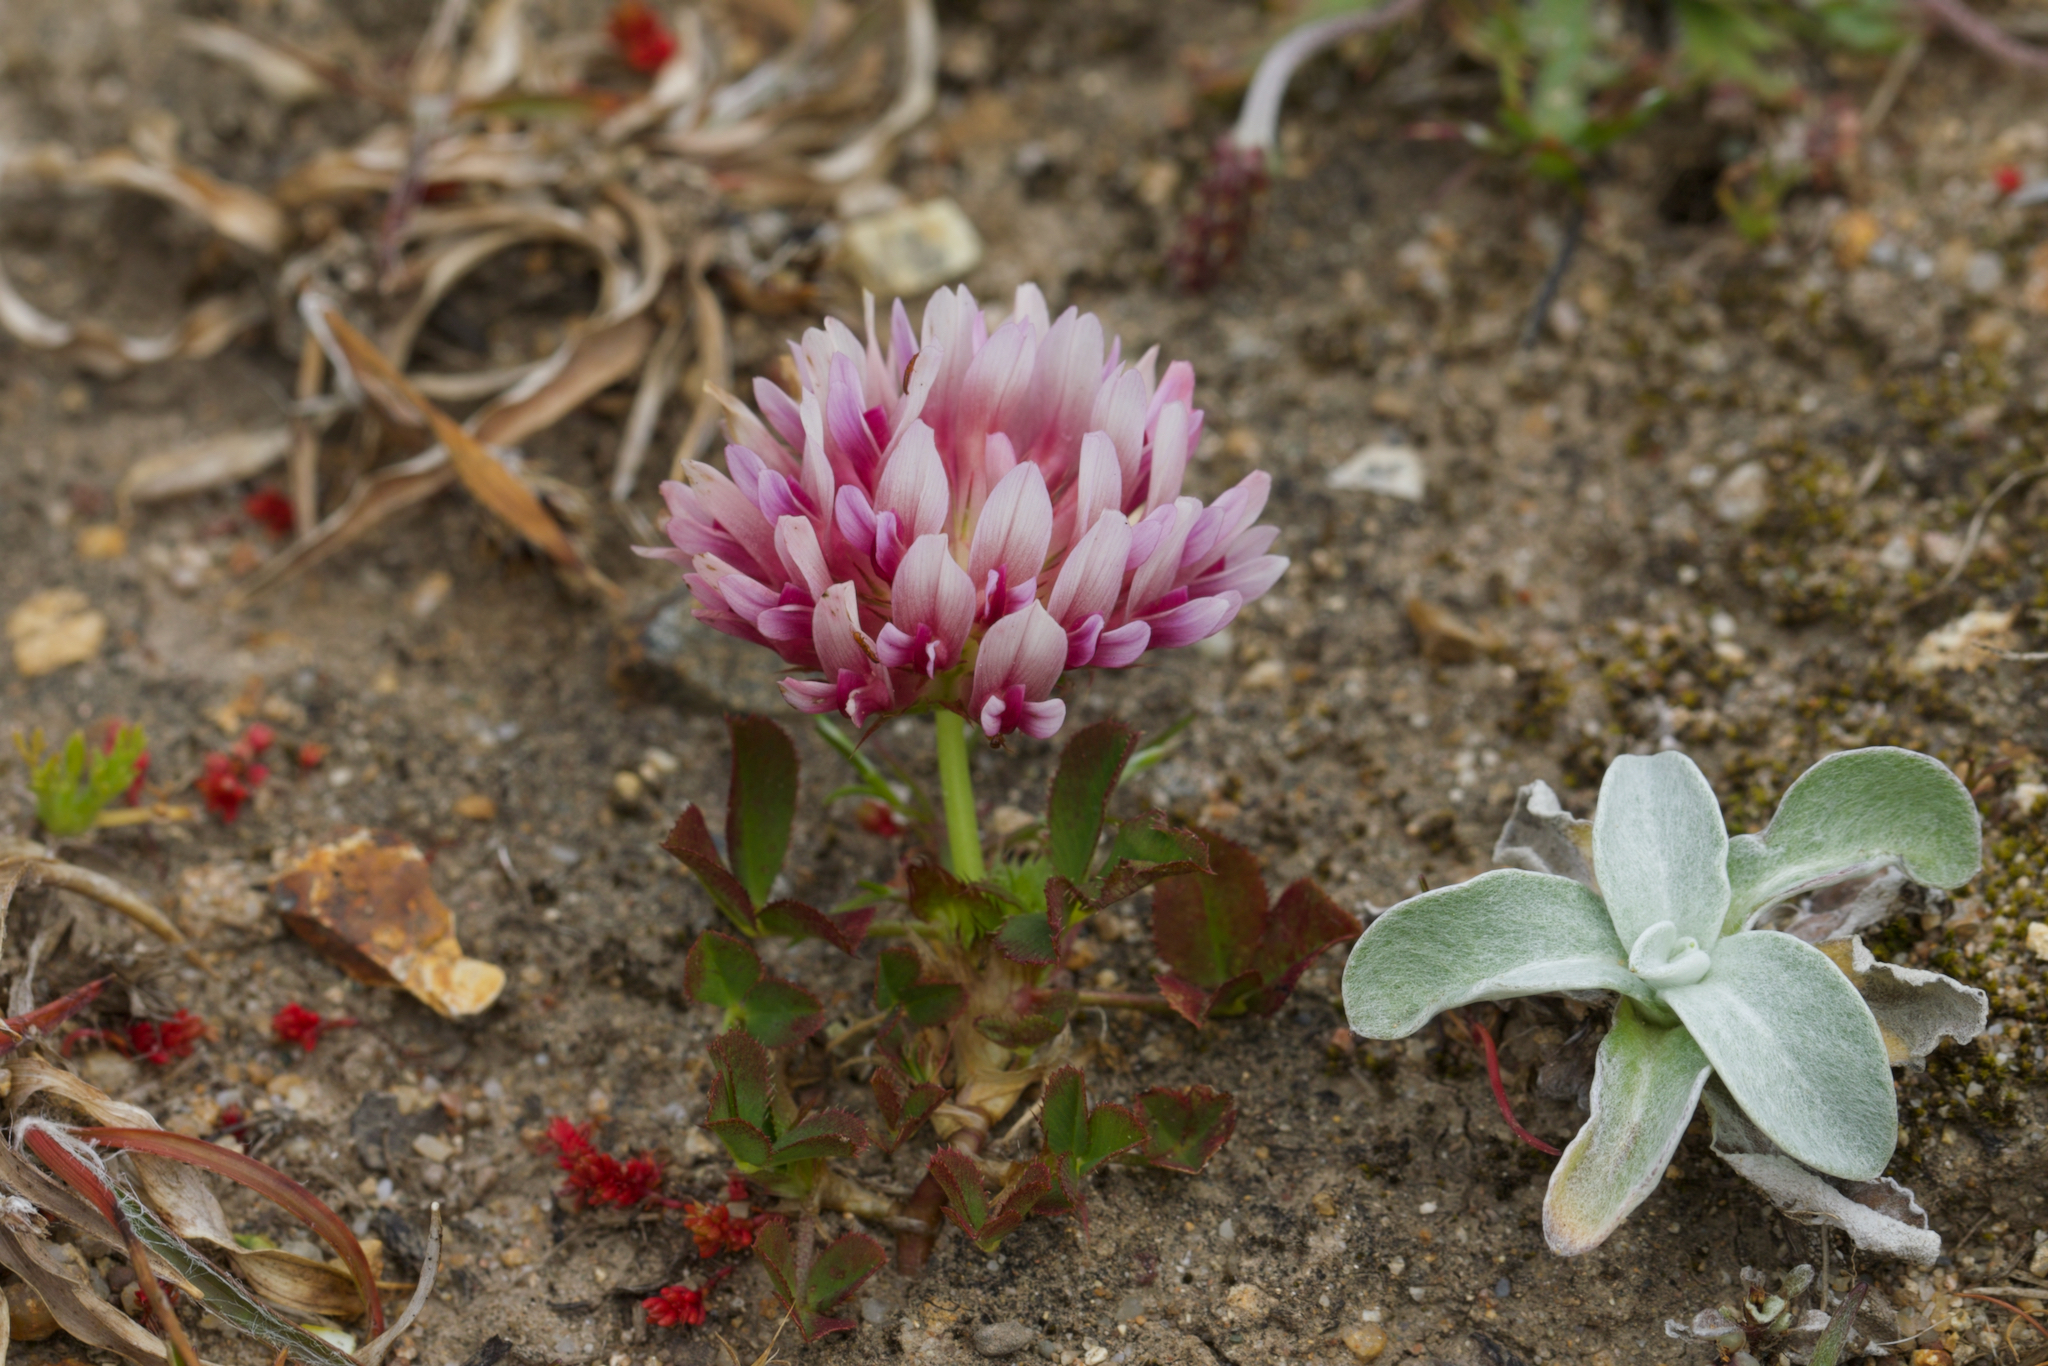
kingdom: Plantae
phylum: Tracheophyta
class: Magnoliopsida
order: Fabales
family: Fabaceae
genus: Trifolium
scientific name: Trifolium wormskioldii
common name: Springbank clover
